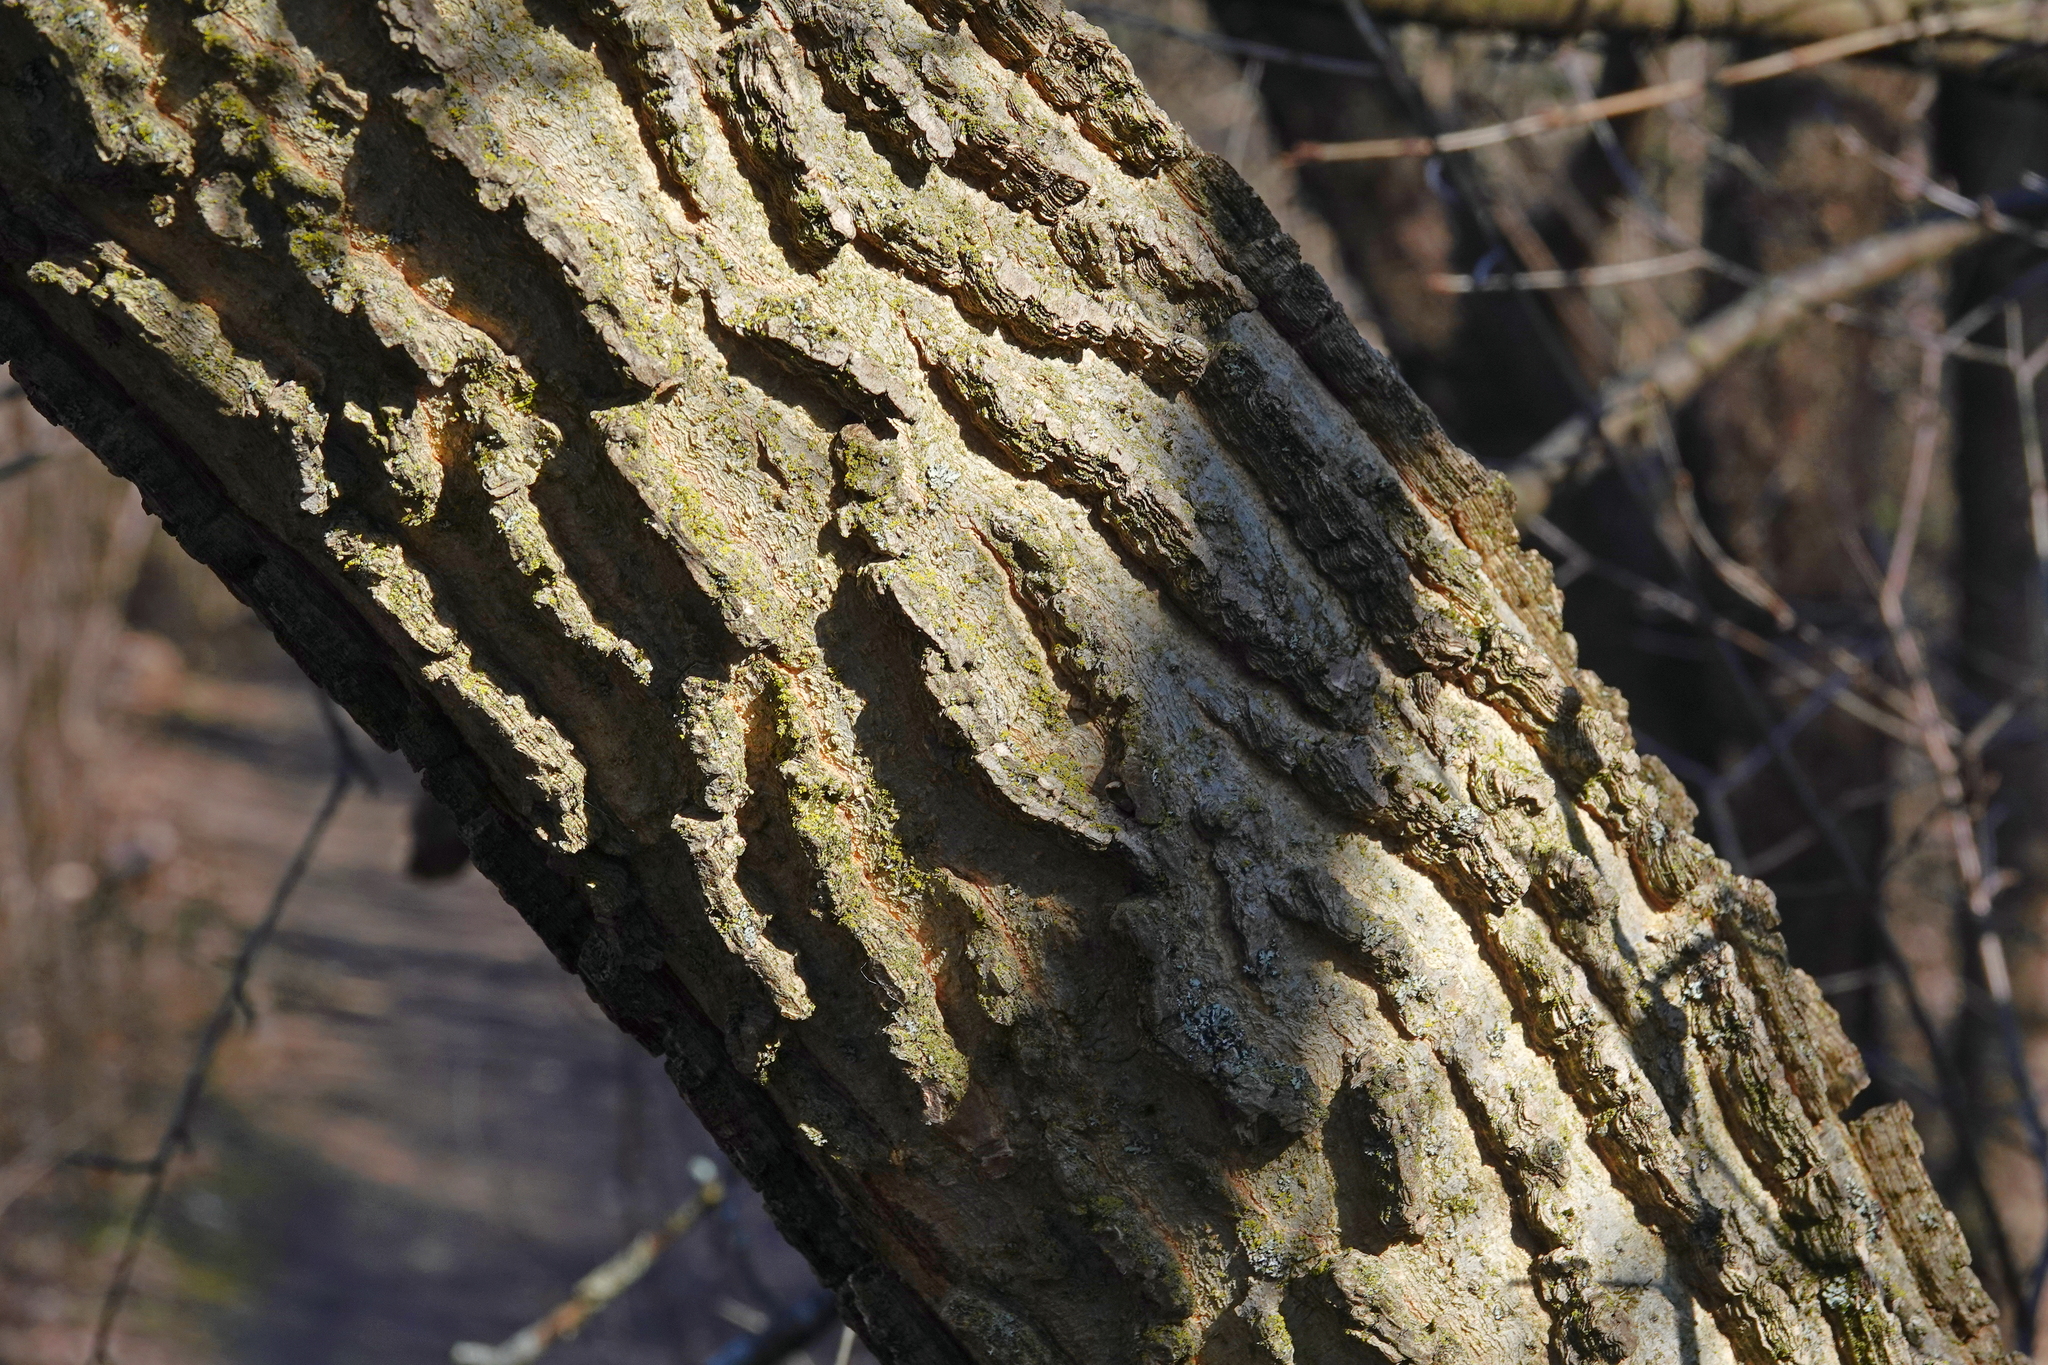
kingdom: Plantae
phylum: Tracheophyta
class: Magnoliopsida
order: Rosales
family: Cannabaceae
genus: Celtis
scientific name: Celtis occidentalis
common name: Common hackberry
